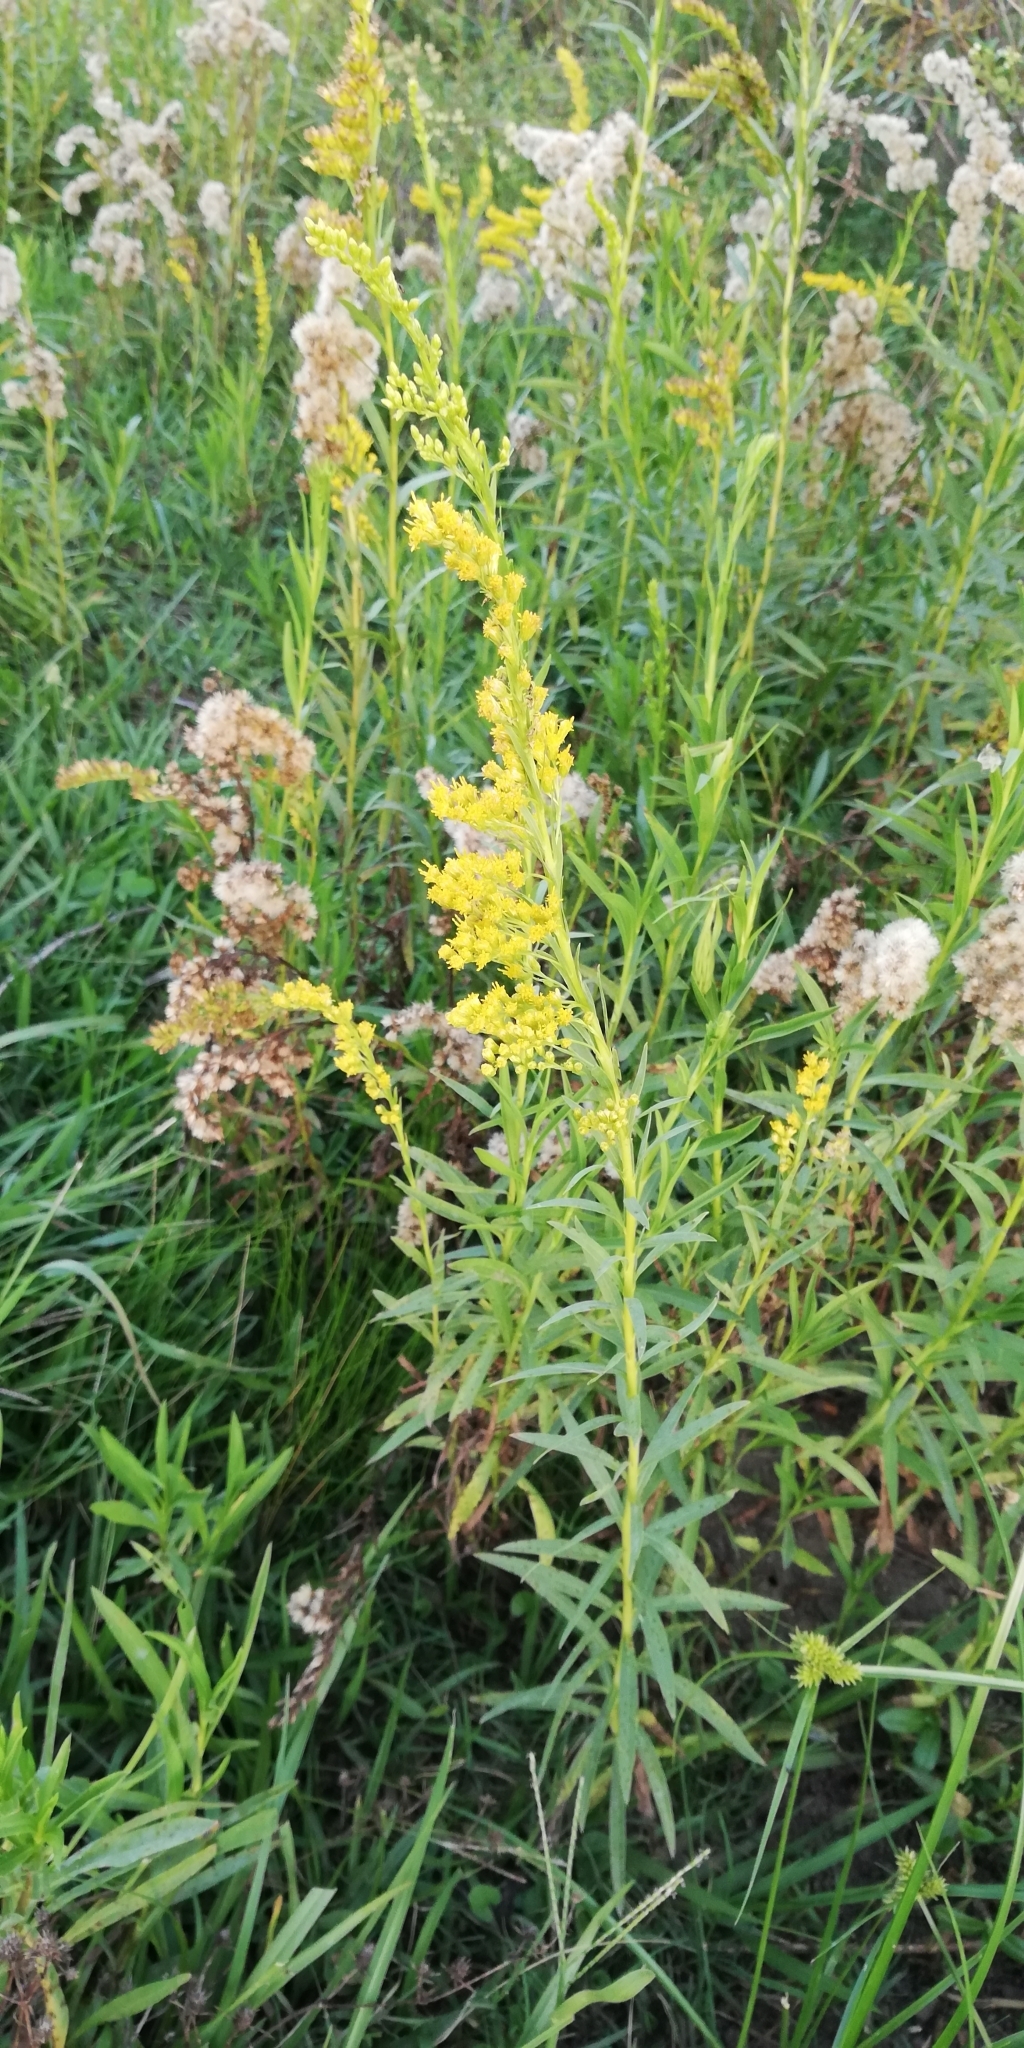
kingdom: Plantae
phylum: Tracheophyta
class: Magnoliopsida
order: Asterales
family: Asteraceae
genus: Solidago
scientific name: Solidago chilensis
